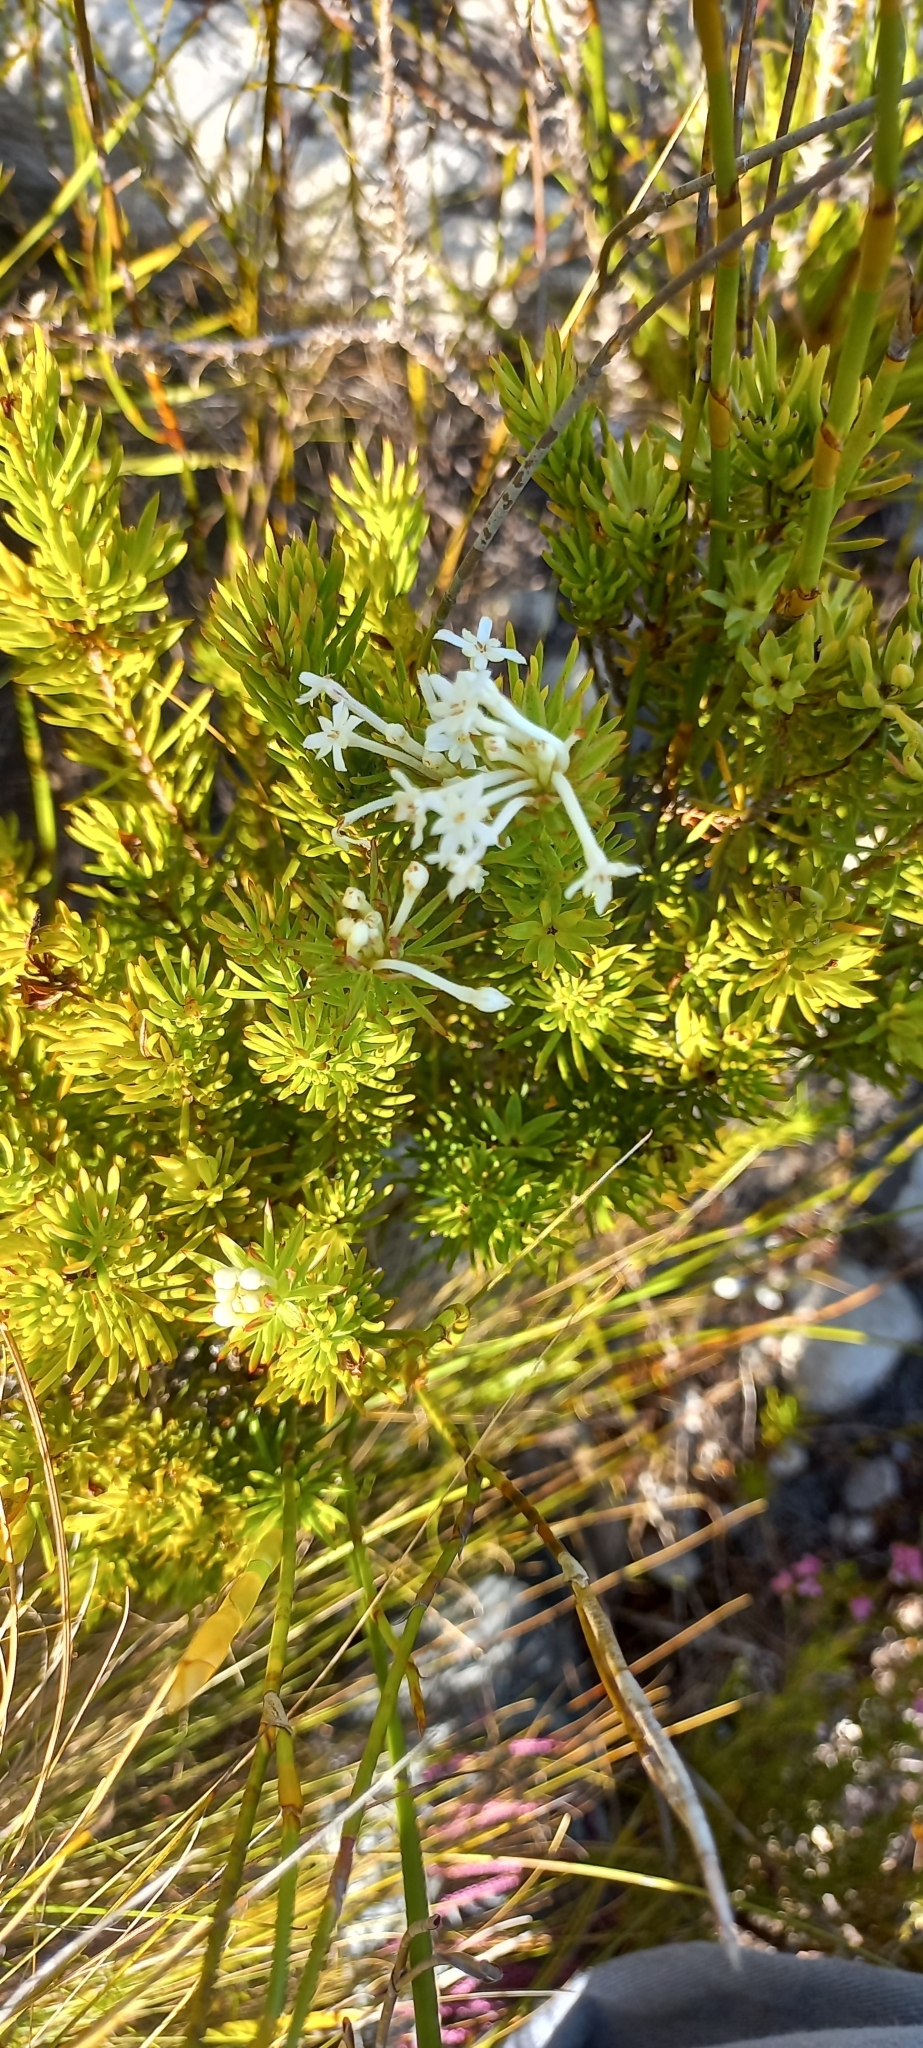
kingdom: Plantae
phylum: Tracheophyta
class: Magnoliopsida
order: Malvales
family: Thymelaeaceae
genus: Gnidia
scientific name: Gnidia pinifolia
